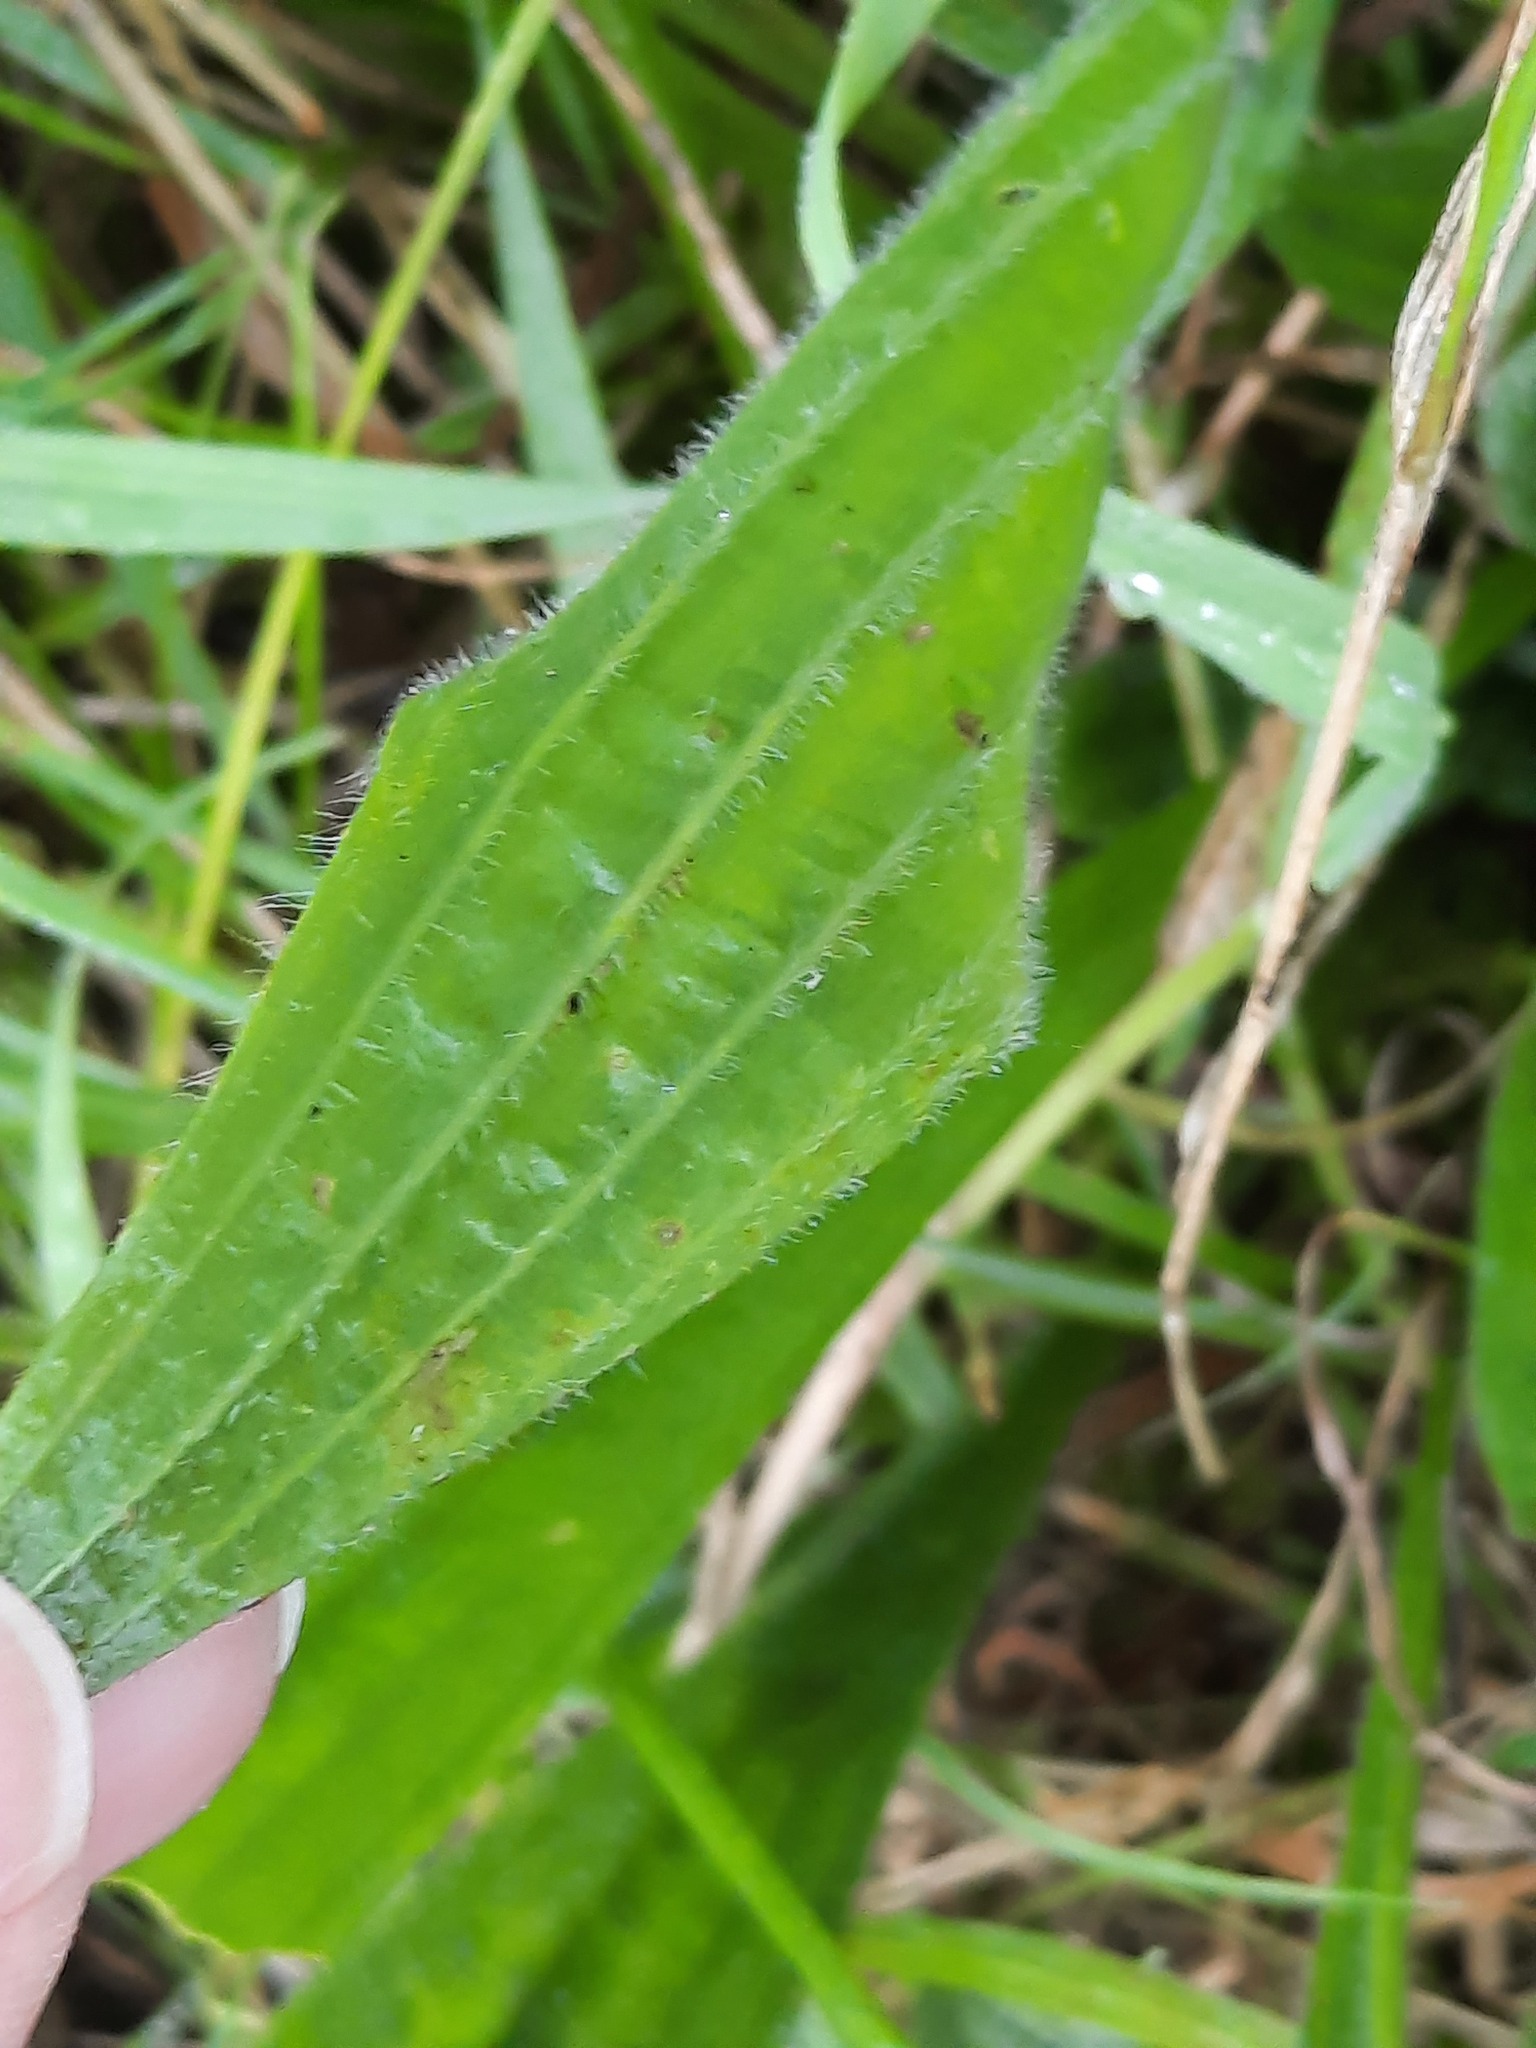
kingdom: Plantae
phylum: Tracheophyta
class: Magnoliopsida
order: Lamiales
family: Plantaginaceae
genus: Plantago
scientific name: Plantago lanceolata
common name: Ribwort plantain
